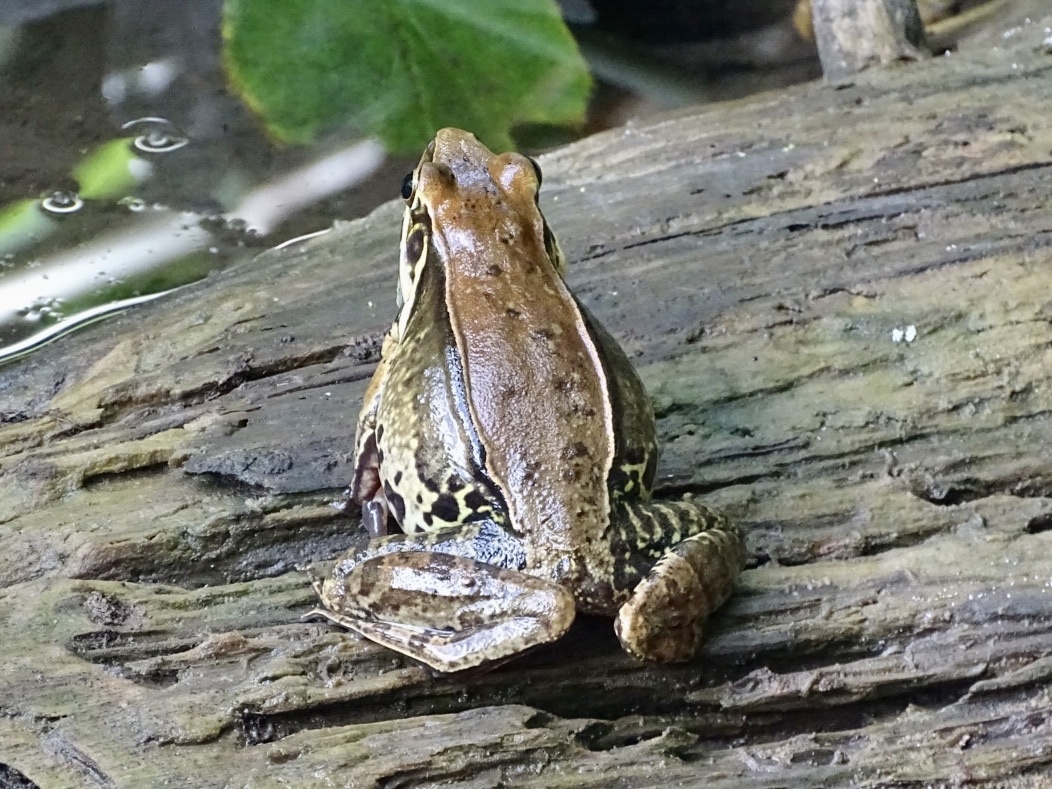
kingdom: Animalia
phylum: Chordata
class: Amphibia
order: Anura
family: Ranidae
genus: Sylvirana
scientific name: Sylvirana guentheri
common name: Guenther's amoy frog
